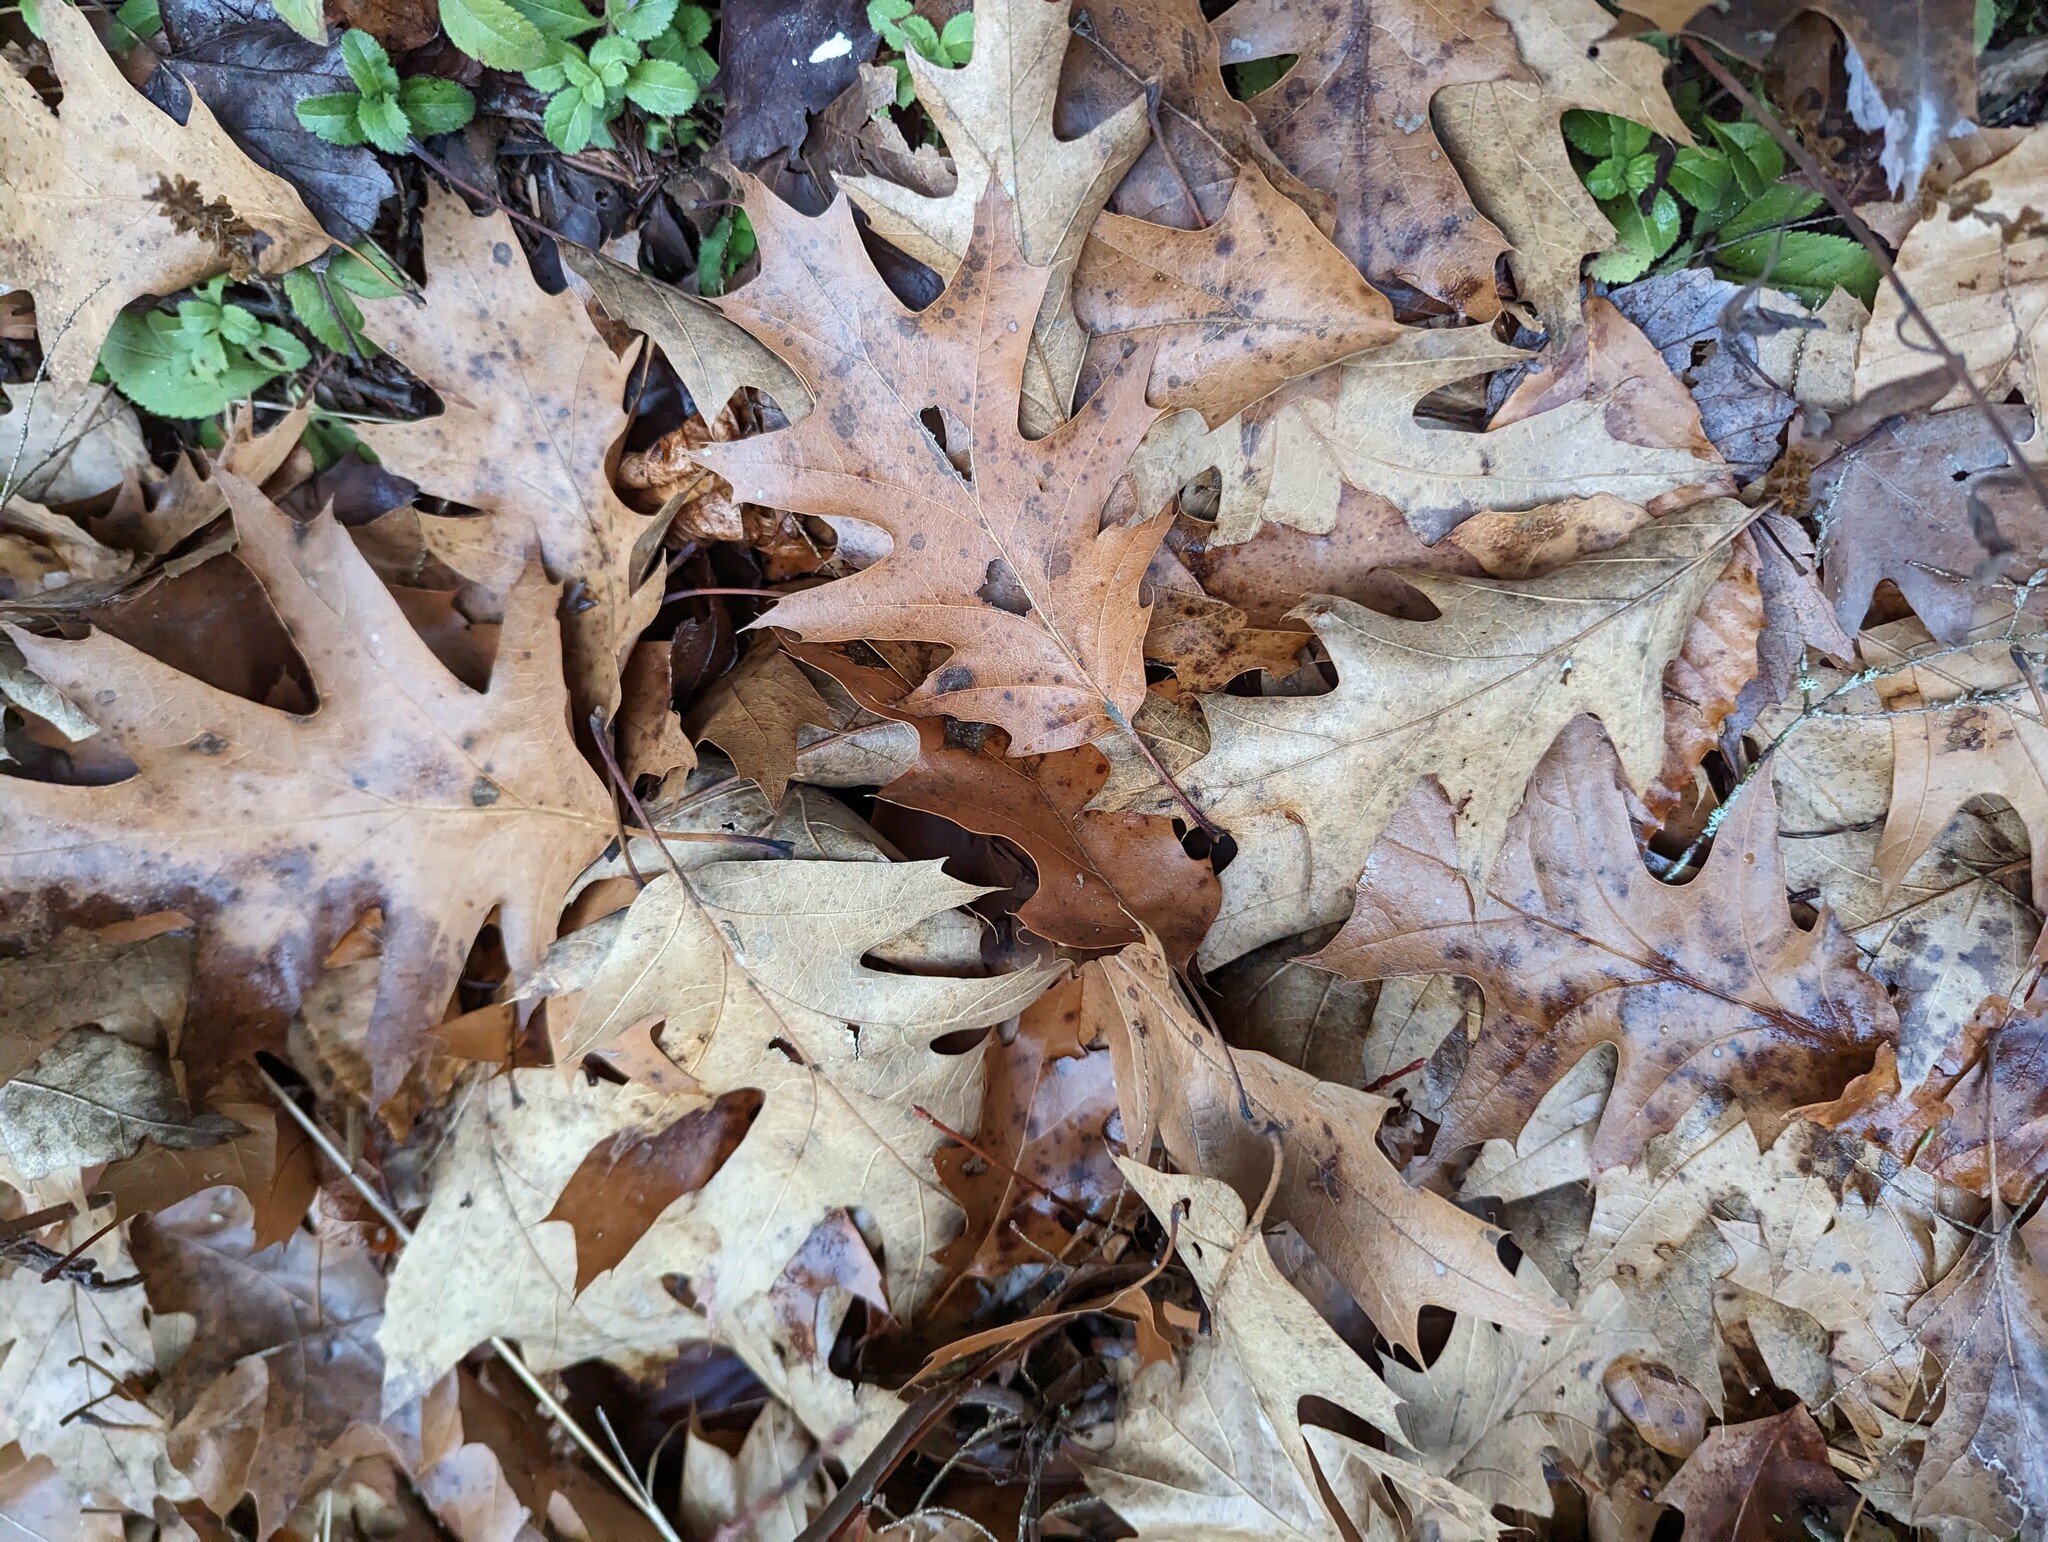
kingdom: Plantae
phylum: Tracheophyta
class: Magnoliopsida
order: Fagales
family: Fagaceae
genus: Quercus
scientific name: Quercus rubra
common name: Red oak
